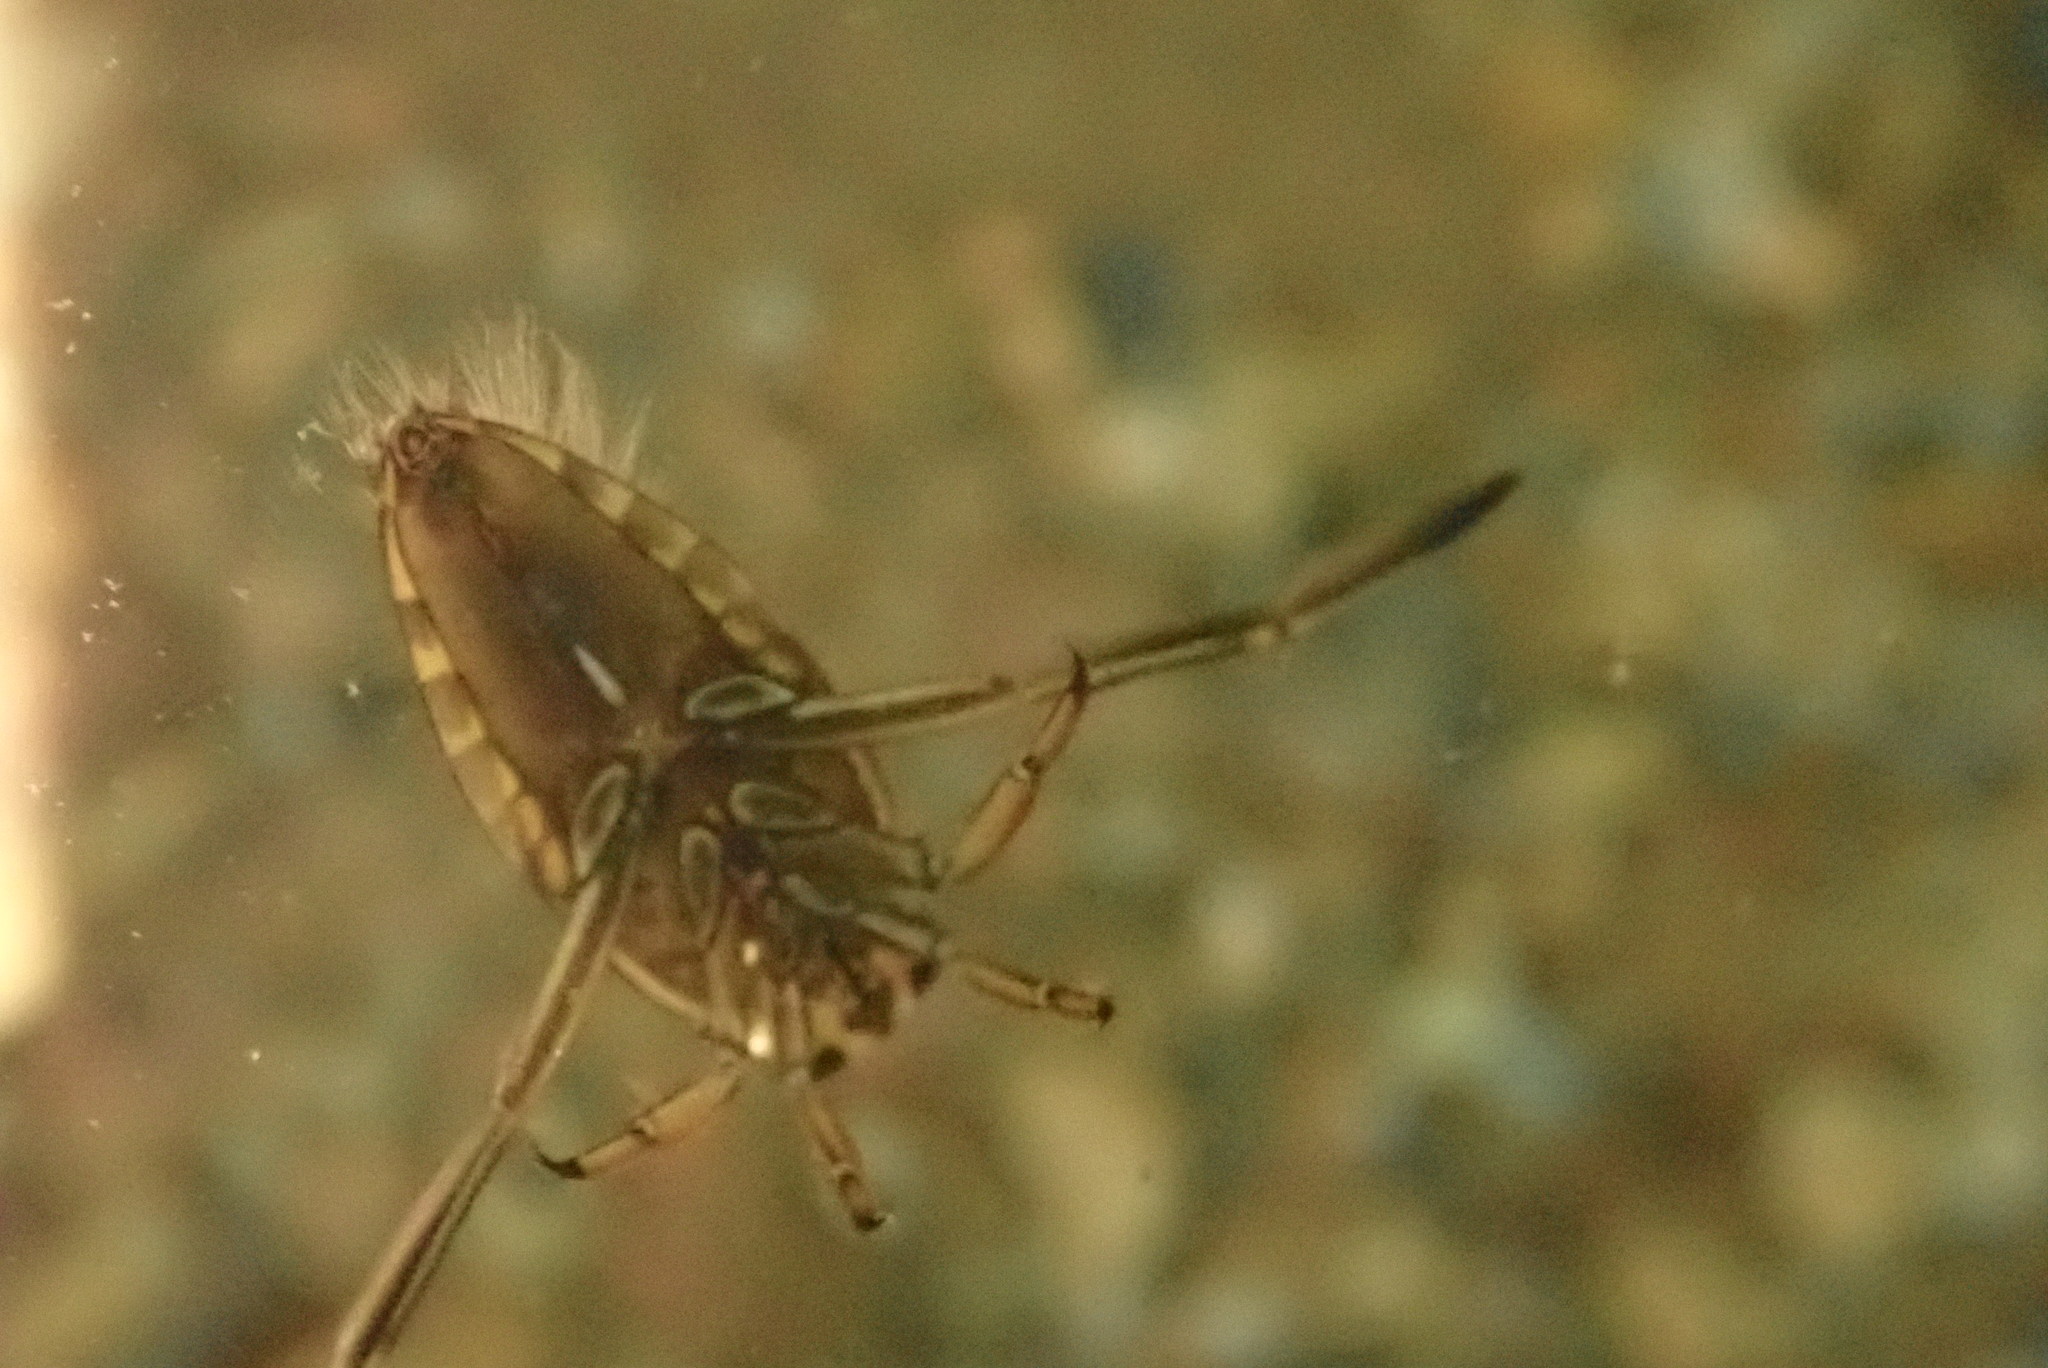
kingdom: Animalia
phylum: Arthropoda
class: Insecta
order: Hemiptera
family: Notonectidae
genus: Notonecta
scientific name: Notonecta
